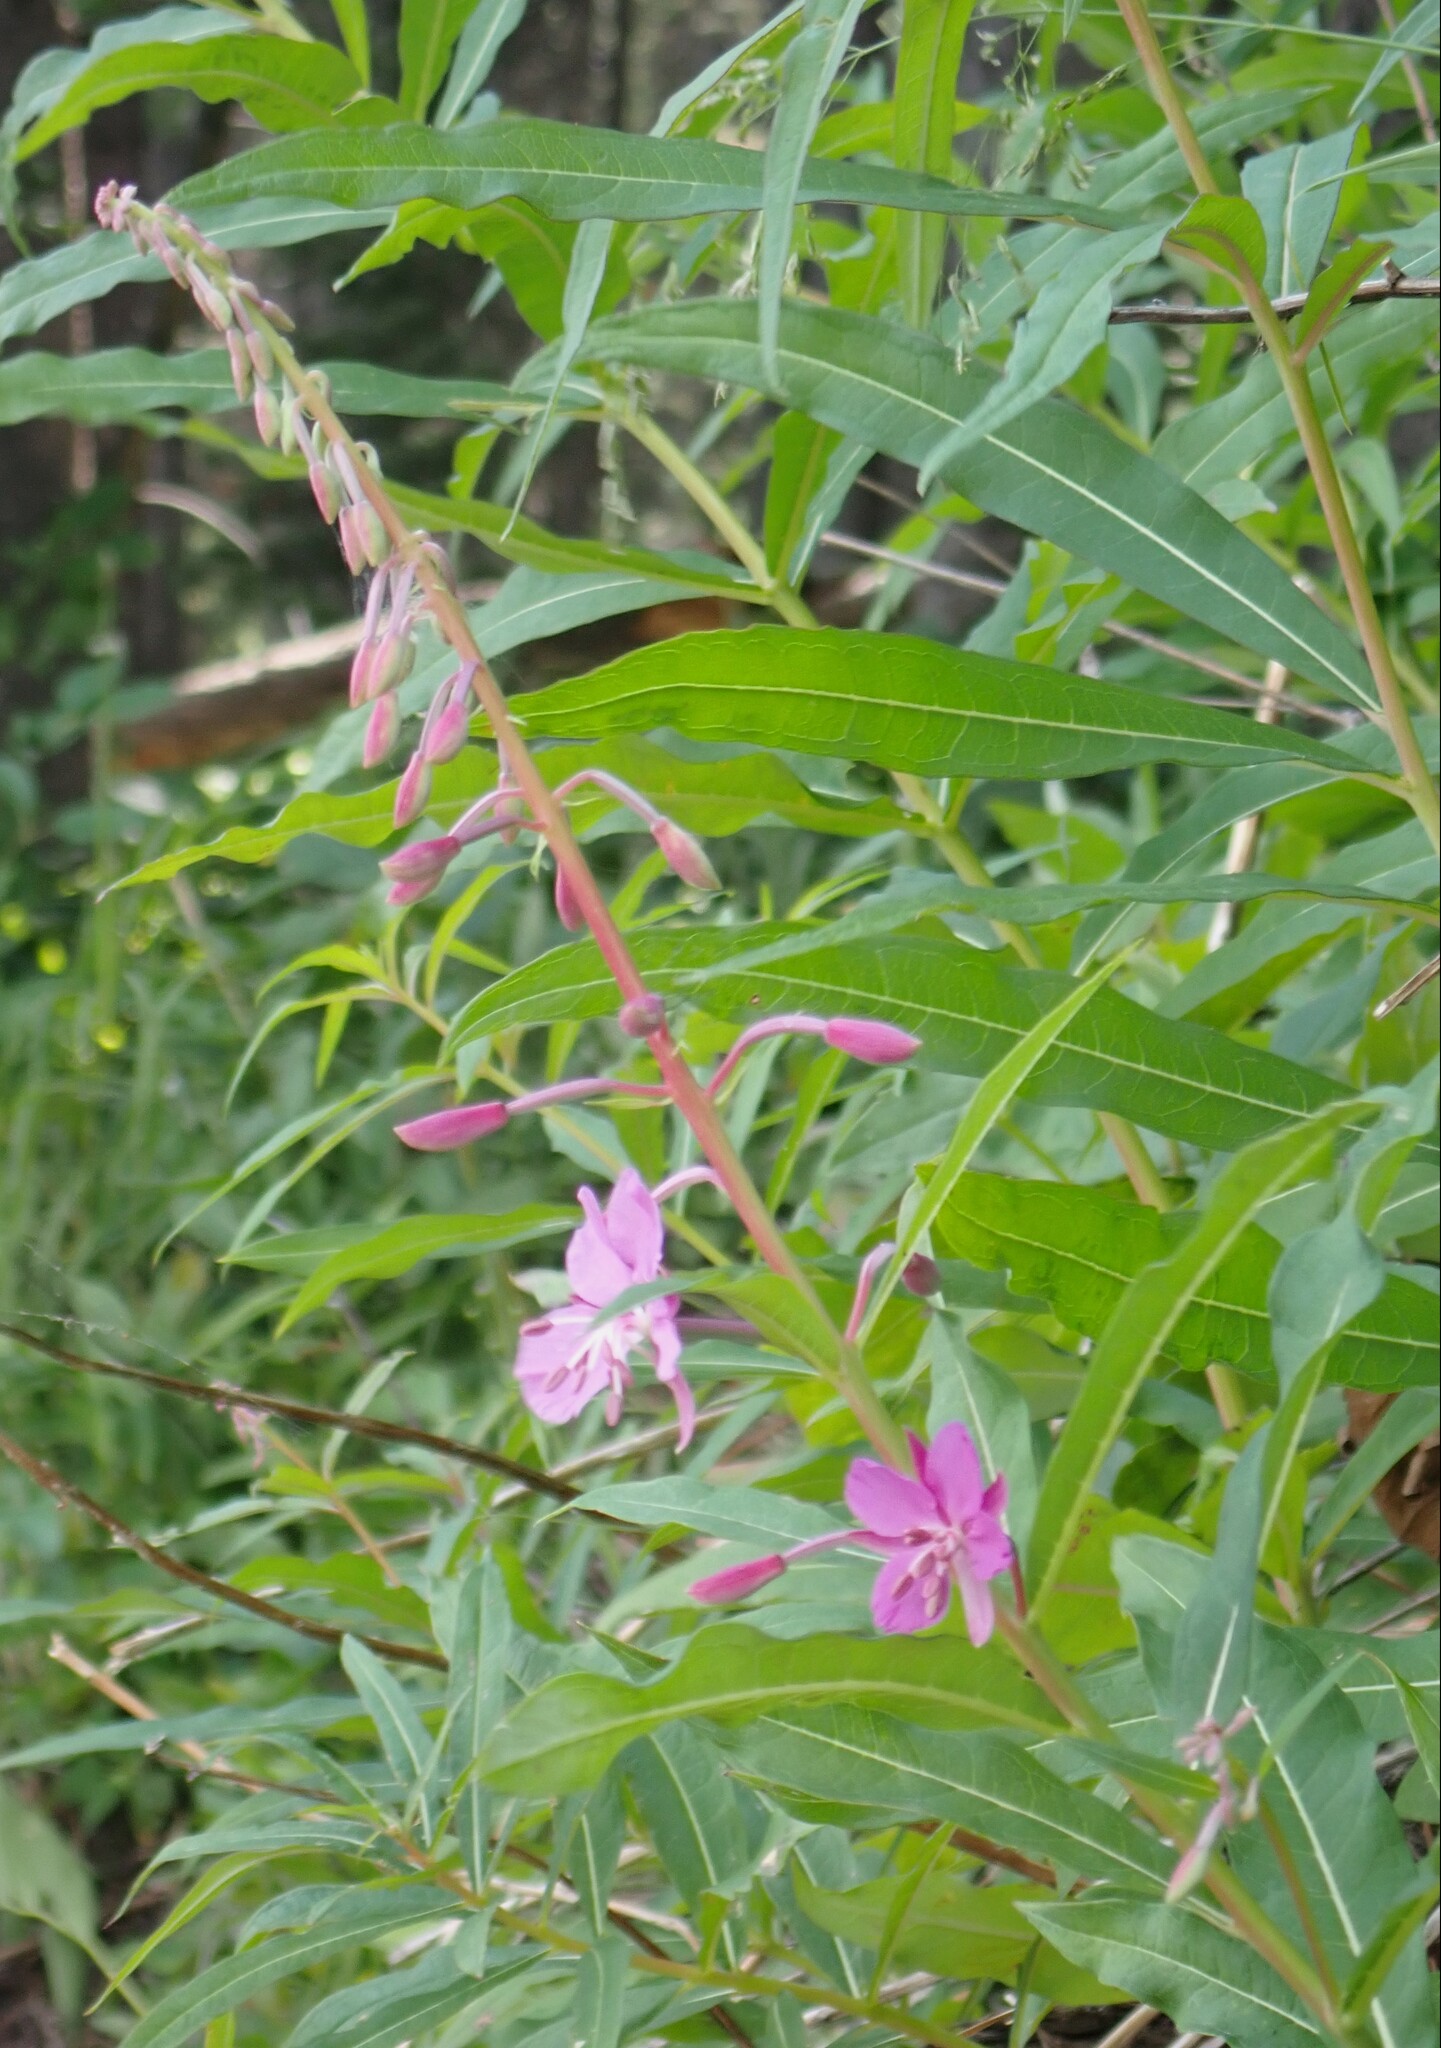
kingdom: Plantae
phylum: Tracheophyta
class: Magnoliopsida
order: Myrtales
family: Onagraceae
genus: Chamaenerion
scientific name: Chamaenerion angustifolium
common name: Fireweed
